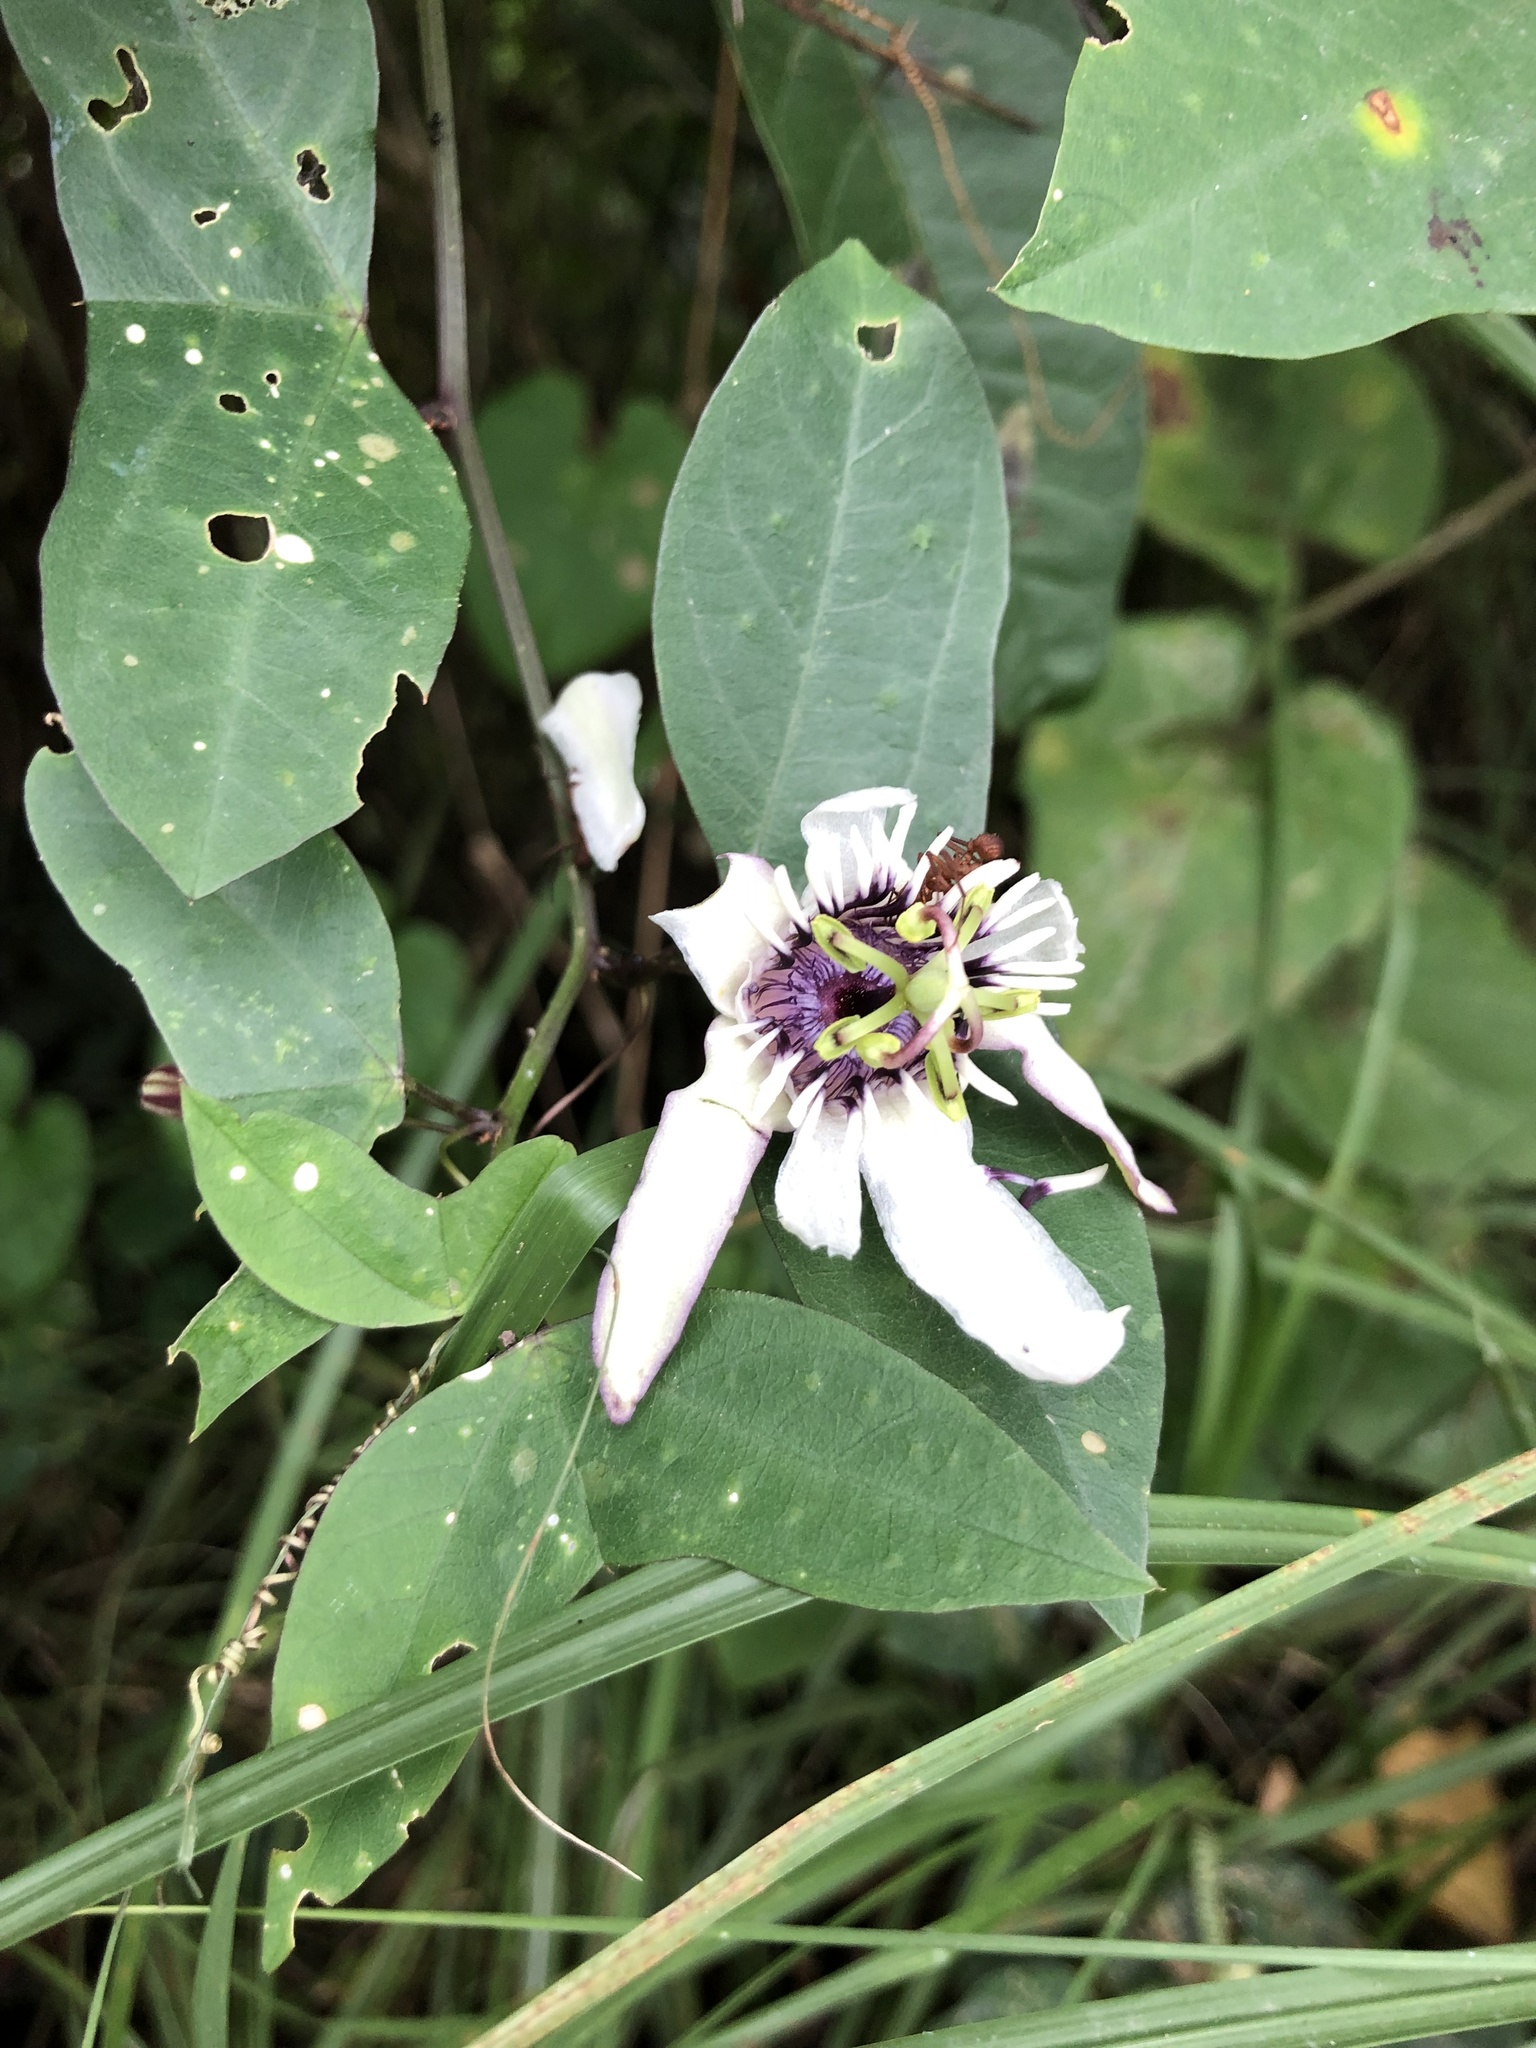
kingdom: Plantae
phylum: Tracheophyta
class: Magnoliopsida
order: Malpighiales
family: Passifloraceae
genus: Passiflora
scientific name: Passiflora colinvauxii
